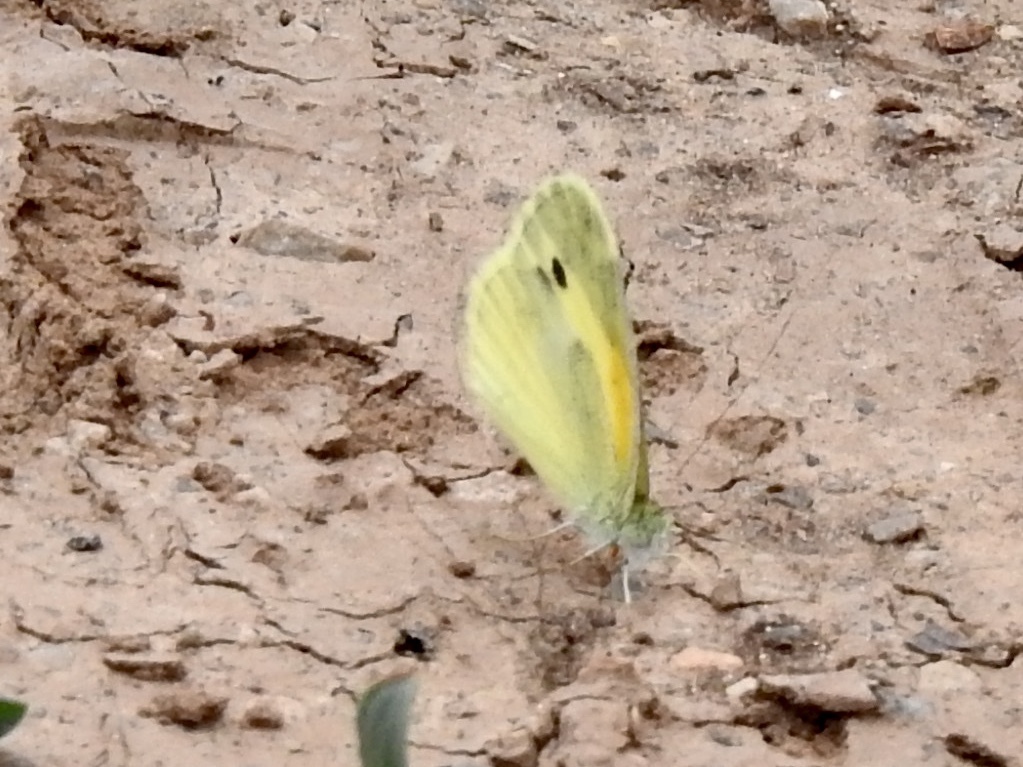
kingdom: Animalia
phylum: Arthropoda
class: Insecta
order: Lepidoptera
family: Pieridae
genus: Nathalis
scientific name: Nathalis iole
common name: Dainty sulphur
